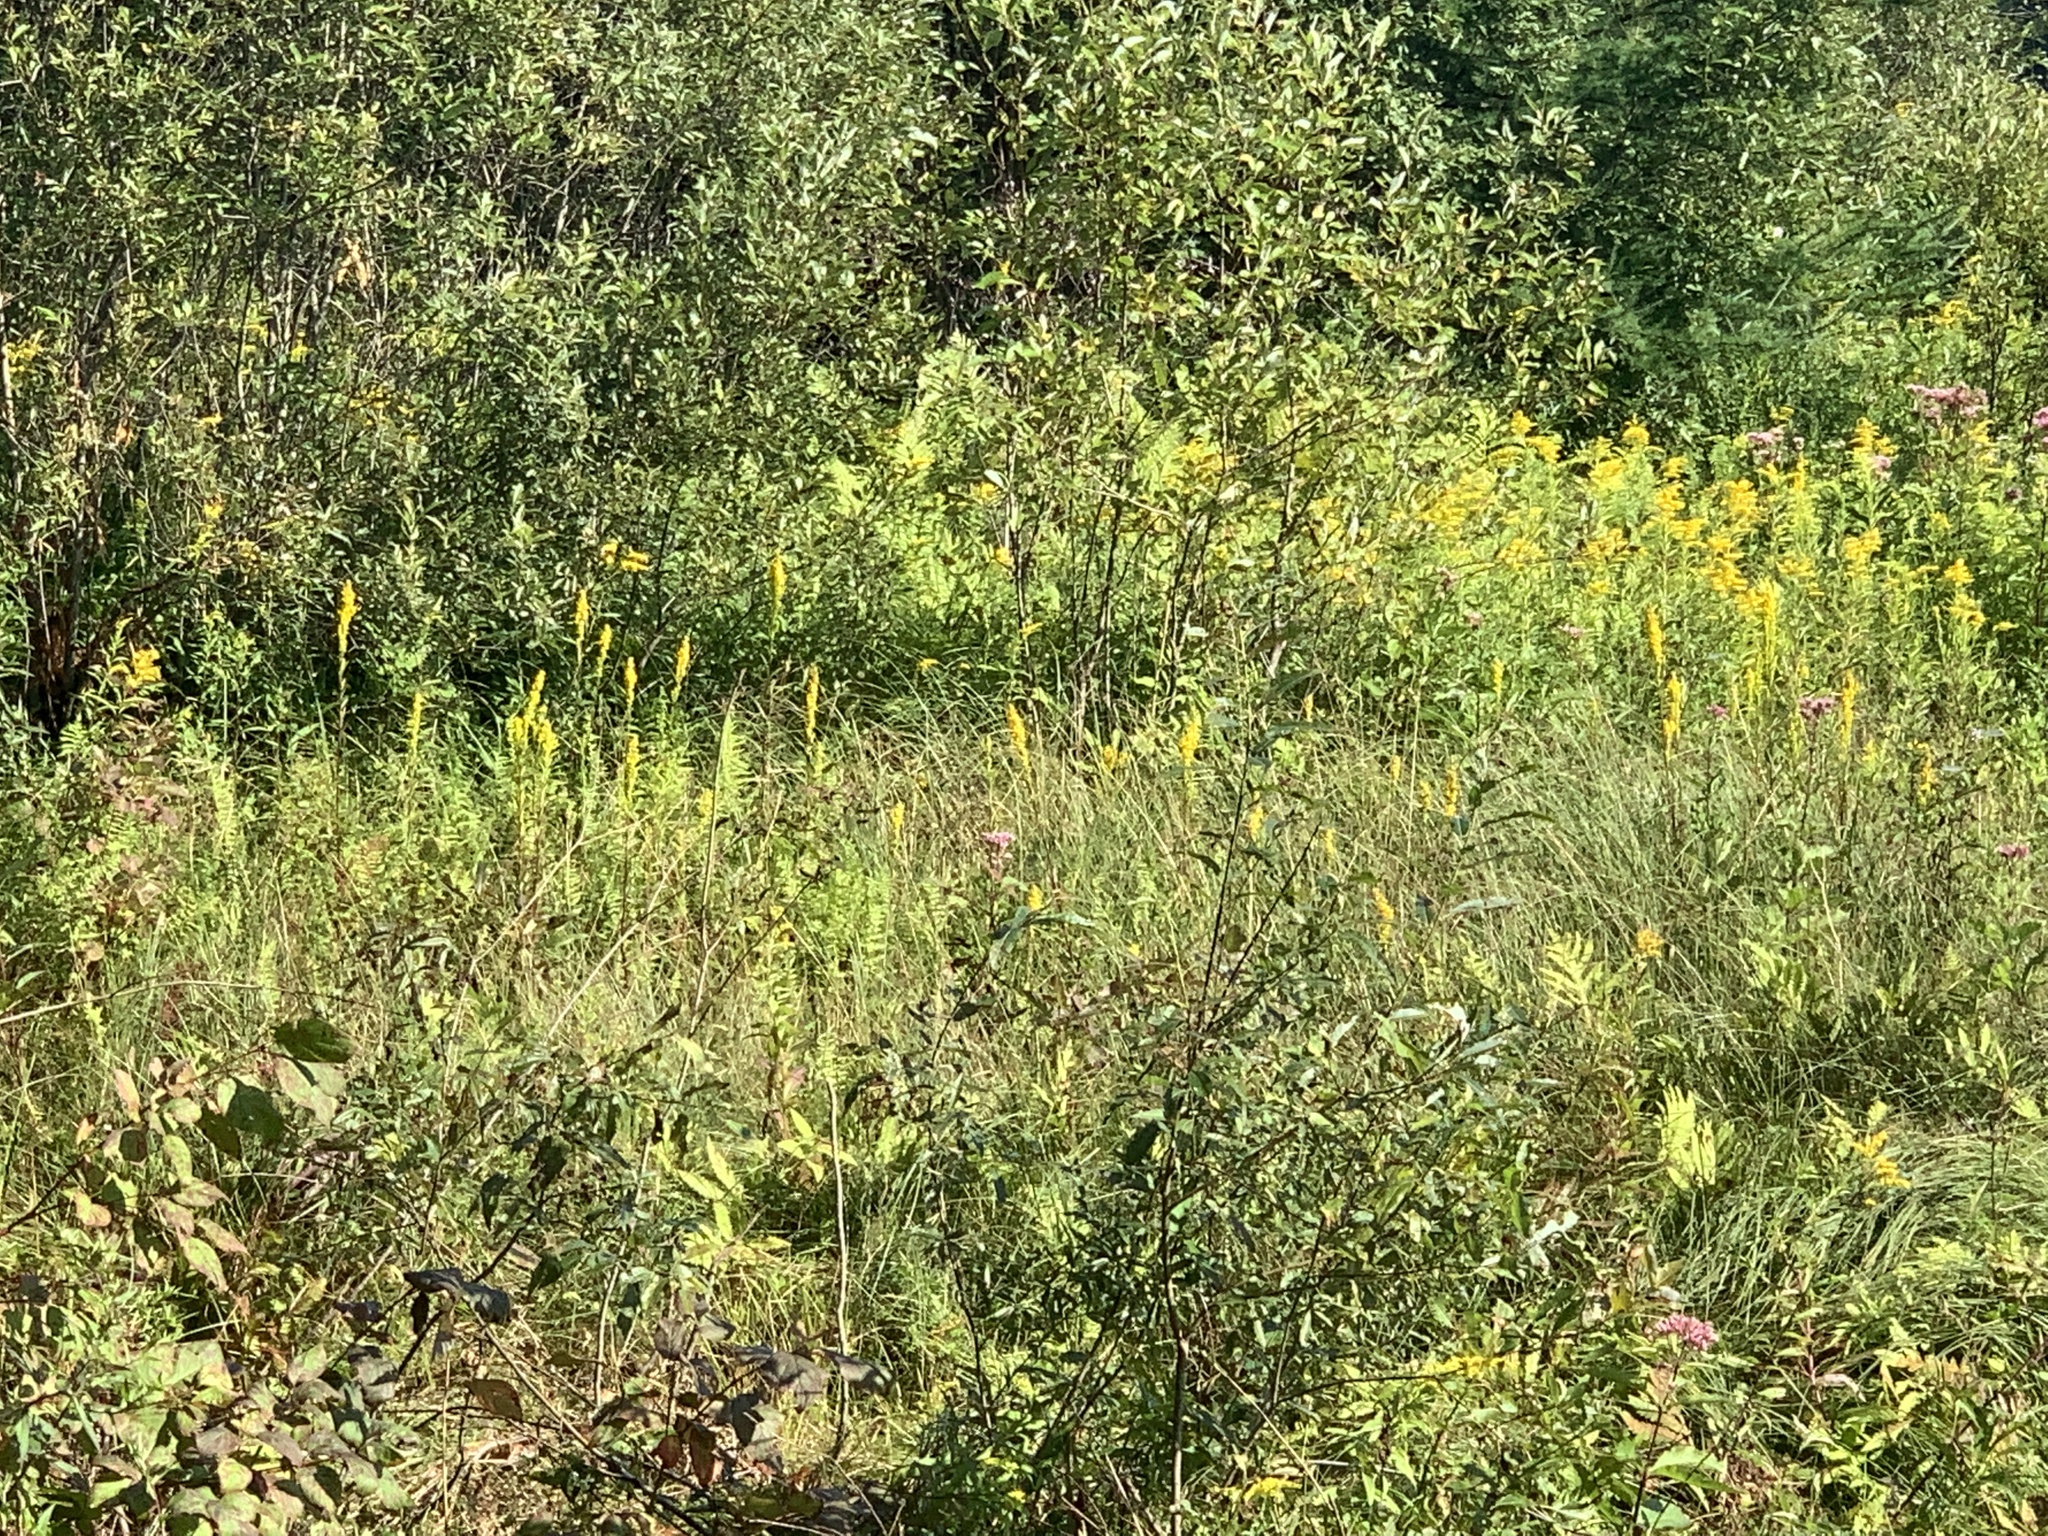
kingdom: Plantae
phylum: Tracheophyta
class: Magnoliopsida
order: Asterales
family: Asteraceae
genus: Solidago
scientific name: Solidago uliginosa
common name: Bog goldenrod
